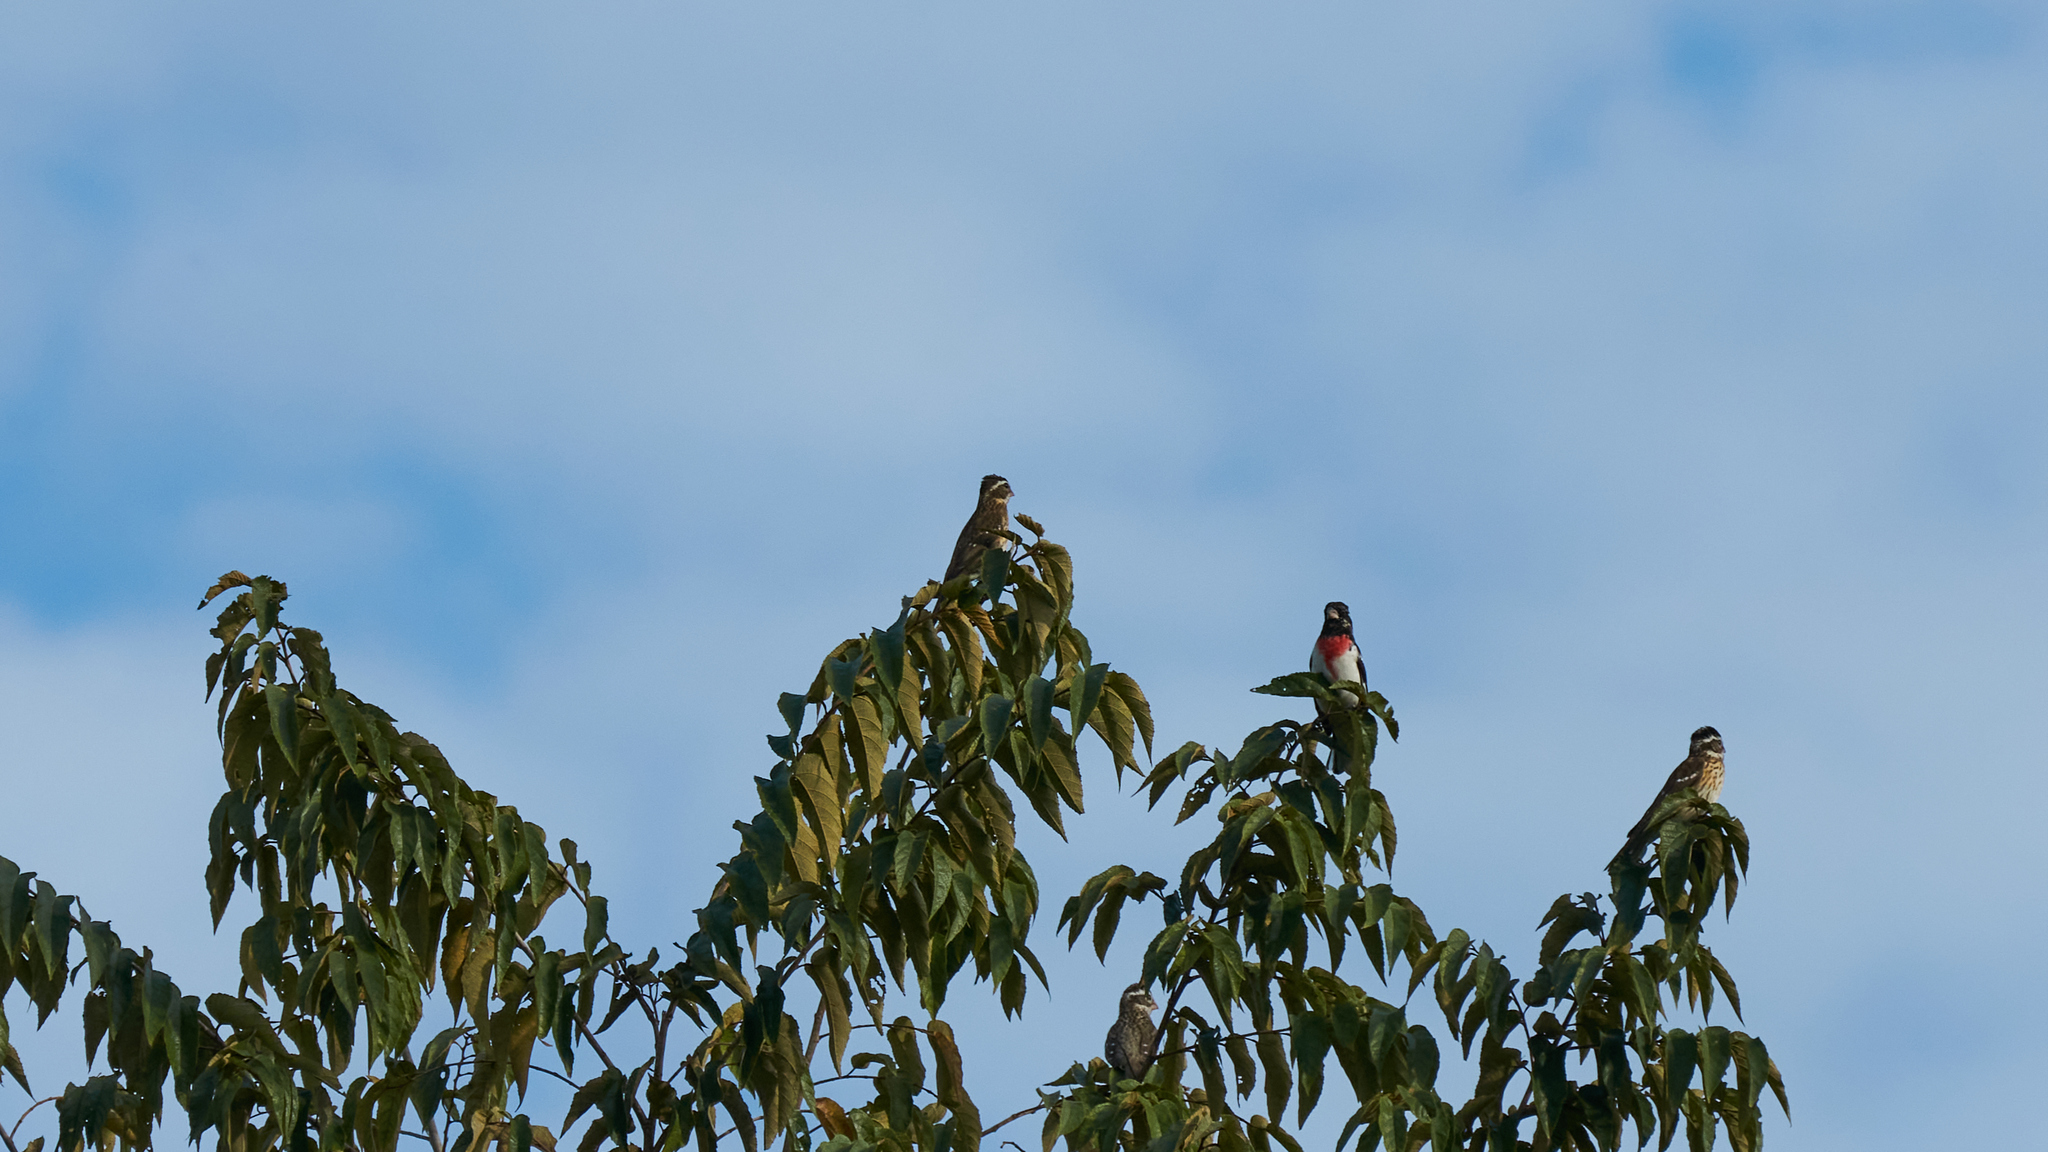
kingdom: Animalia
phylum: Chordata
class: Aves
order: Passeriformes
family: Cardinalidae
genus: Pheucticus
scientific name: Pheucticus ludovicianus
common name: Rose-breasted grosbeak
